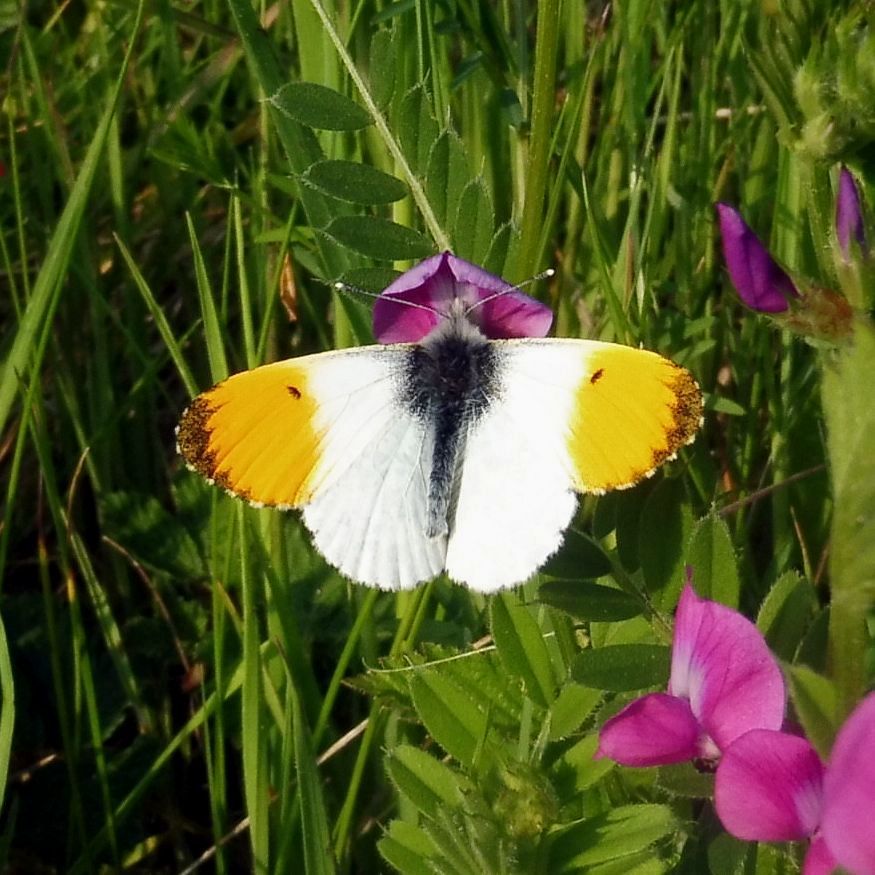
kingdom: Animalia
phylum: Arthropoda
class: Insecta
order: Lepidoptera
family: Pieridae
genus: Anthocharis
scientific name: Anthocharis cardamines
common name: Orange-tip
